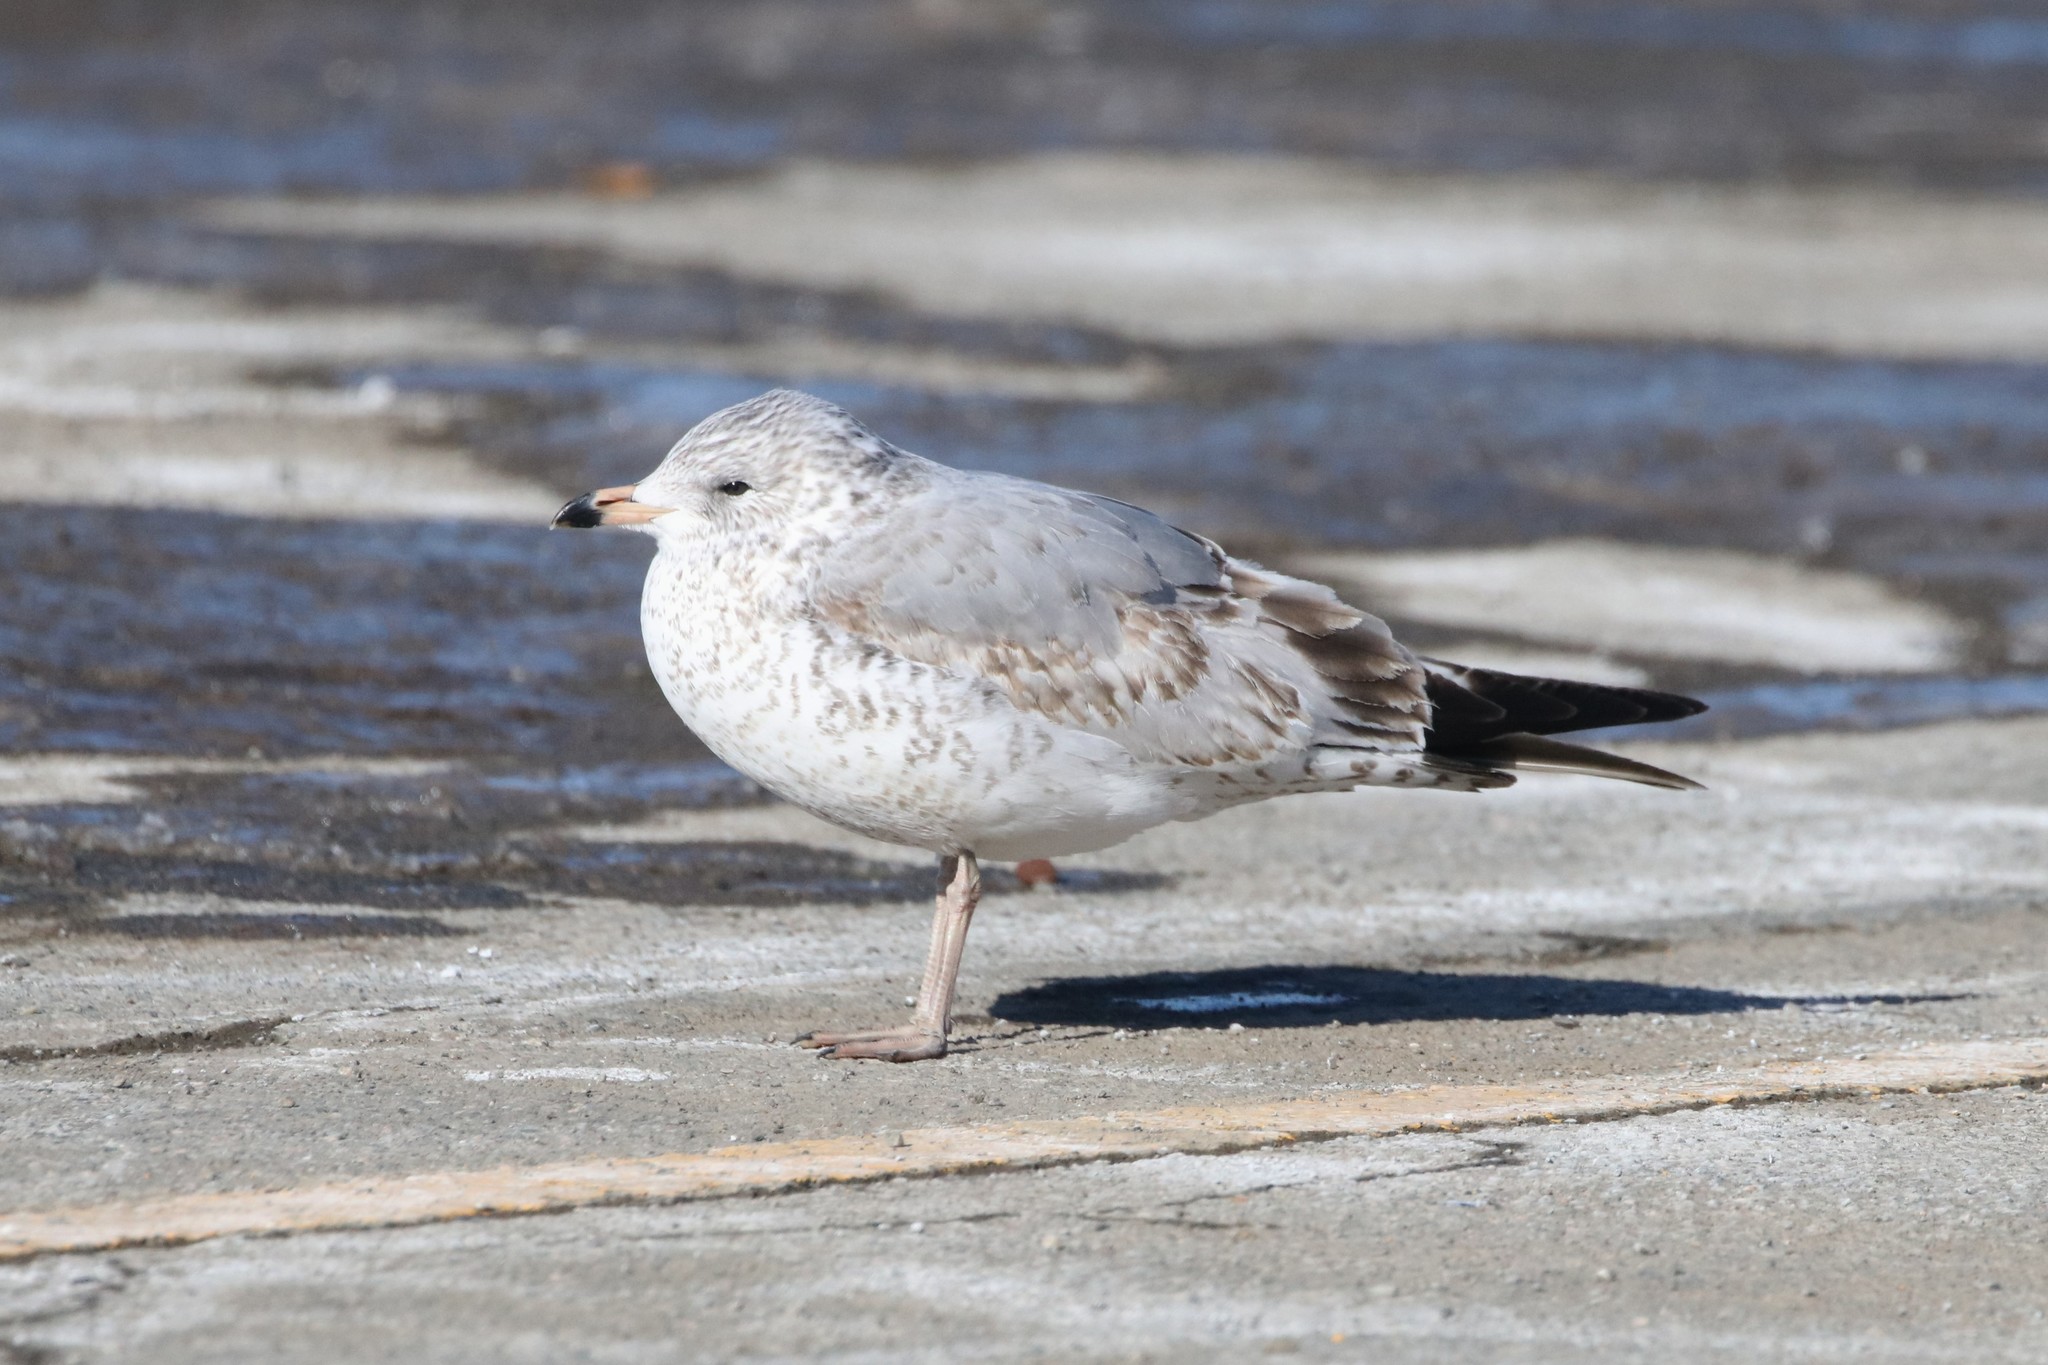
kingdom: Animalia
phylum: Chordata
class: Aves
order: Charadriiformes
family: Laridae
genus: Larus
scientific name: Larus delawarensis
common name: Ring-billed gull
